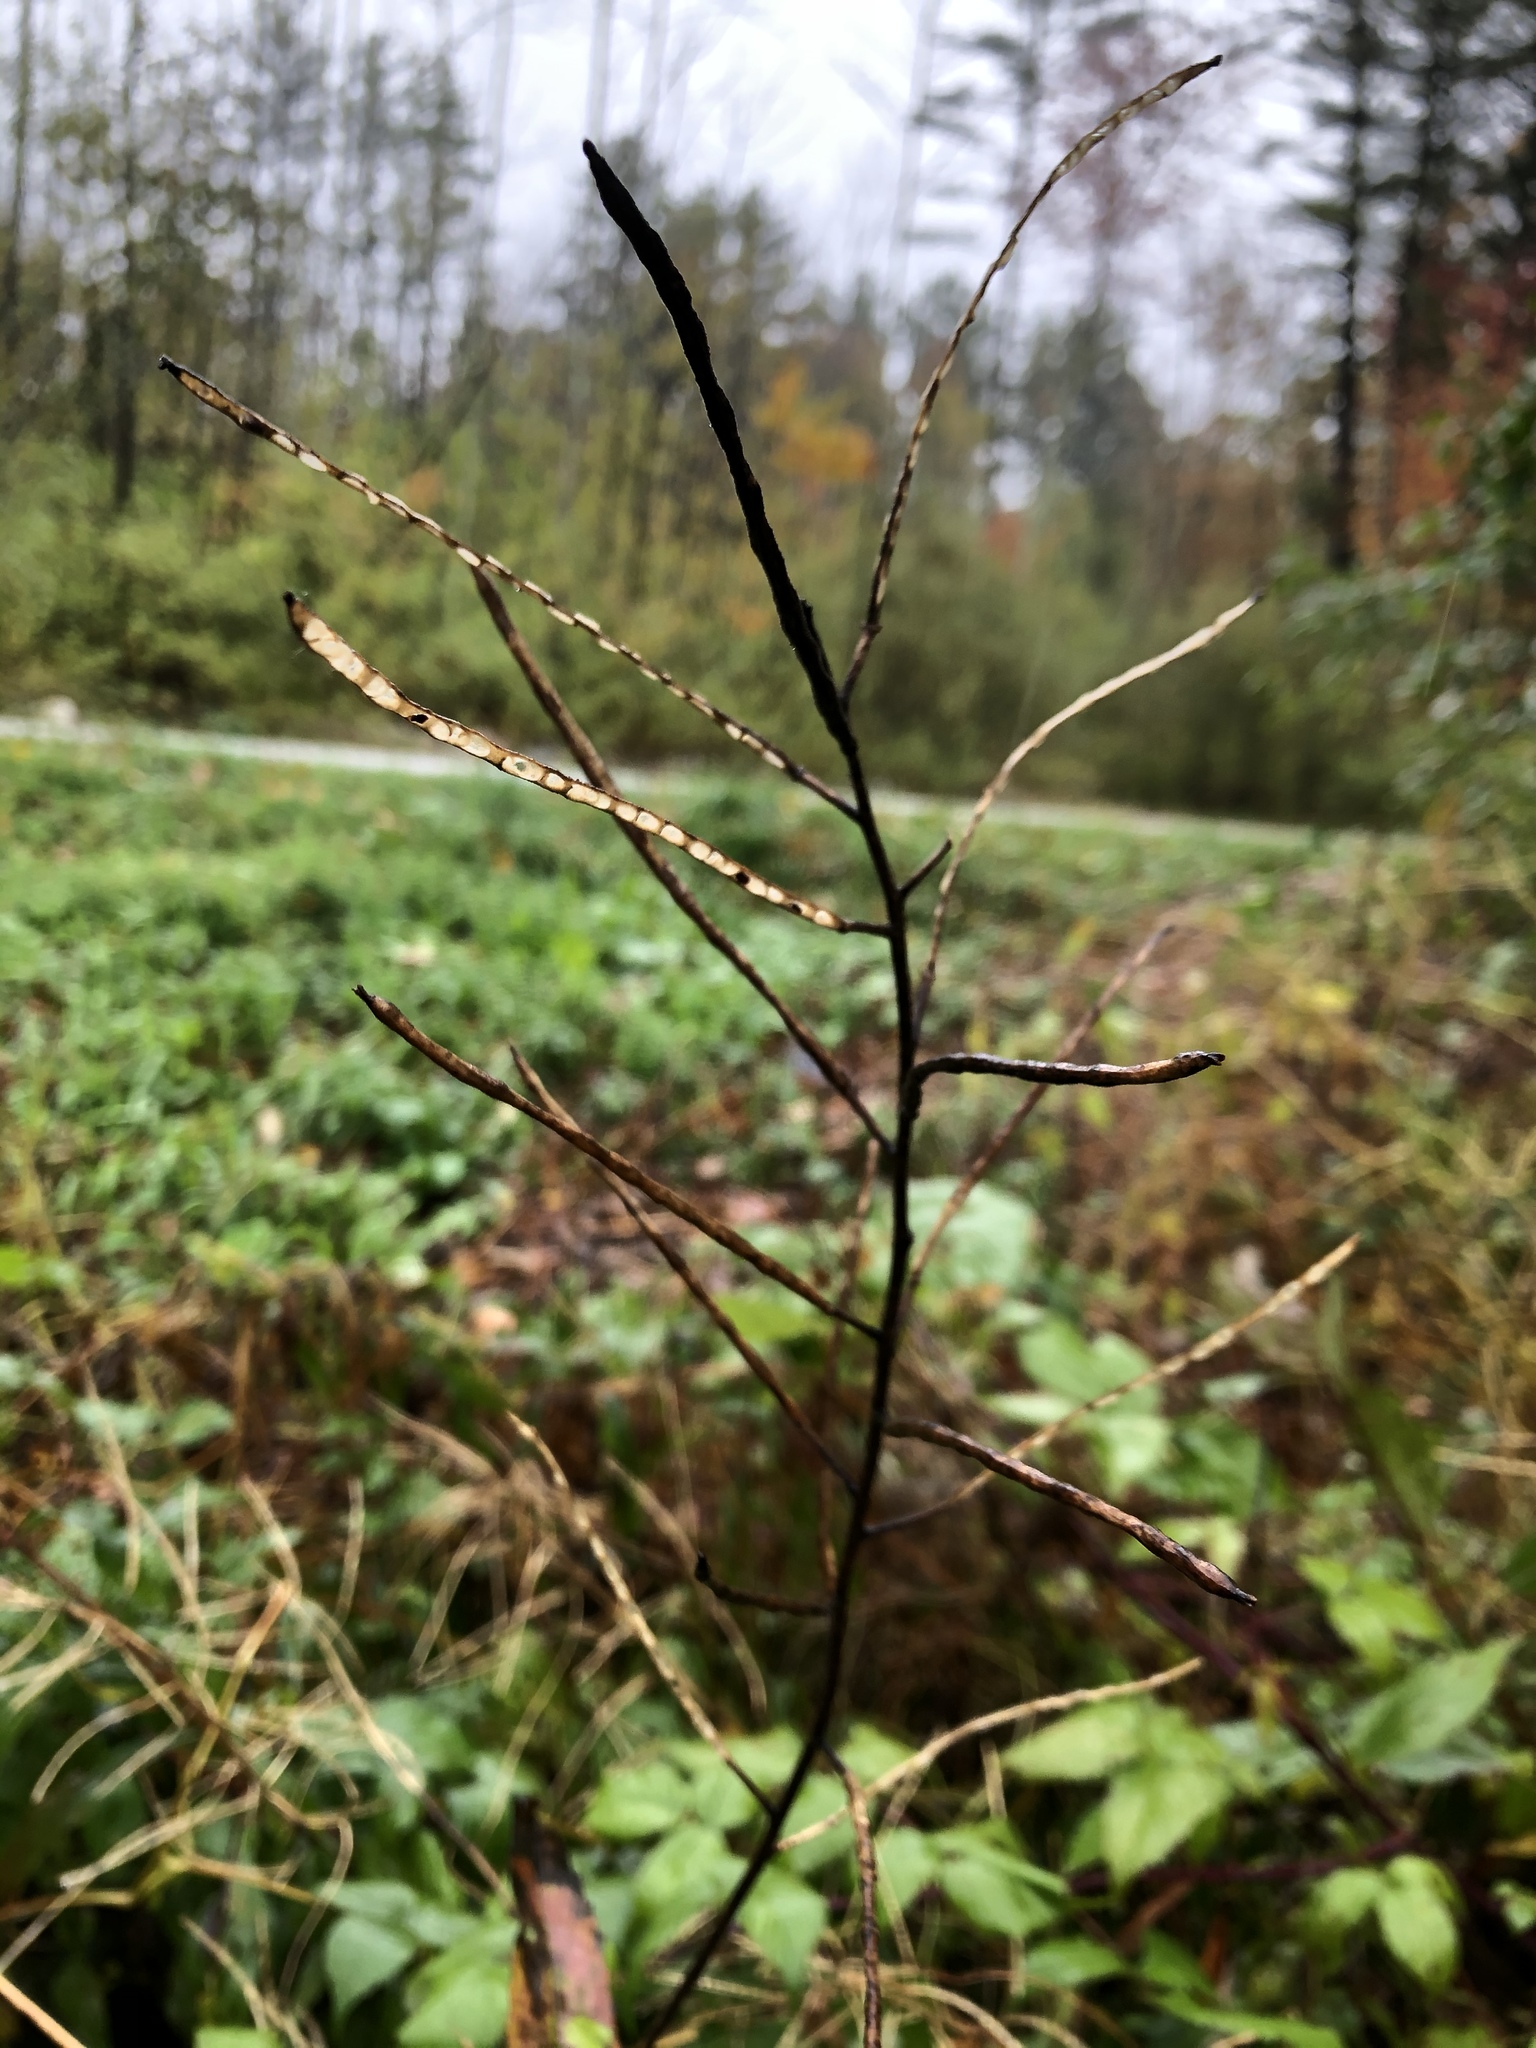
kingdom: Plantae
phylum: Tracheophyta
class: Magnoliopsida
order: Brassicales
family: Brassicaceae
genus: Hesperis
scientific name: Hesperis matronalis
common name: Dame's-violet
